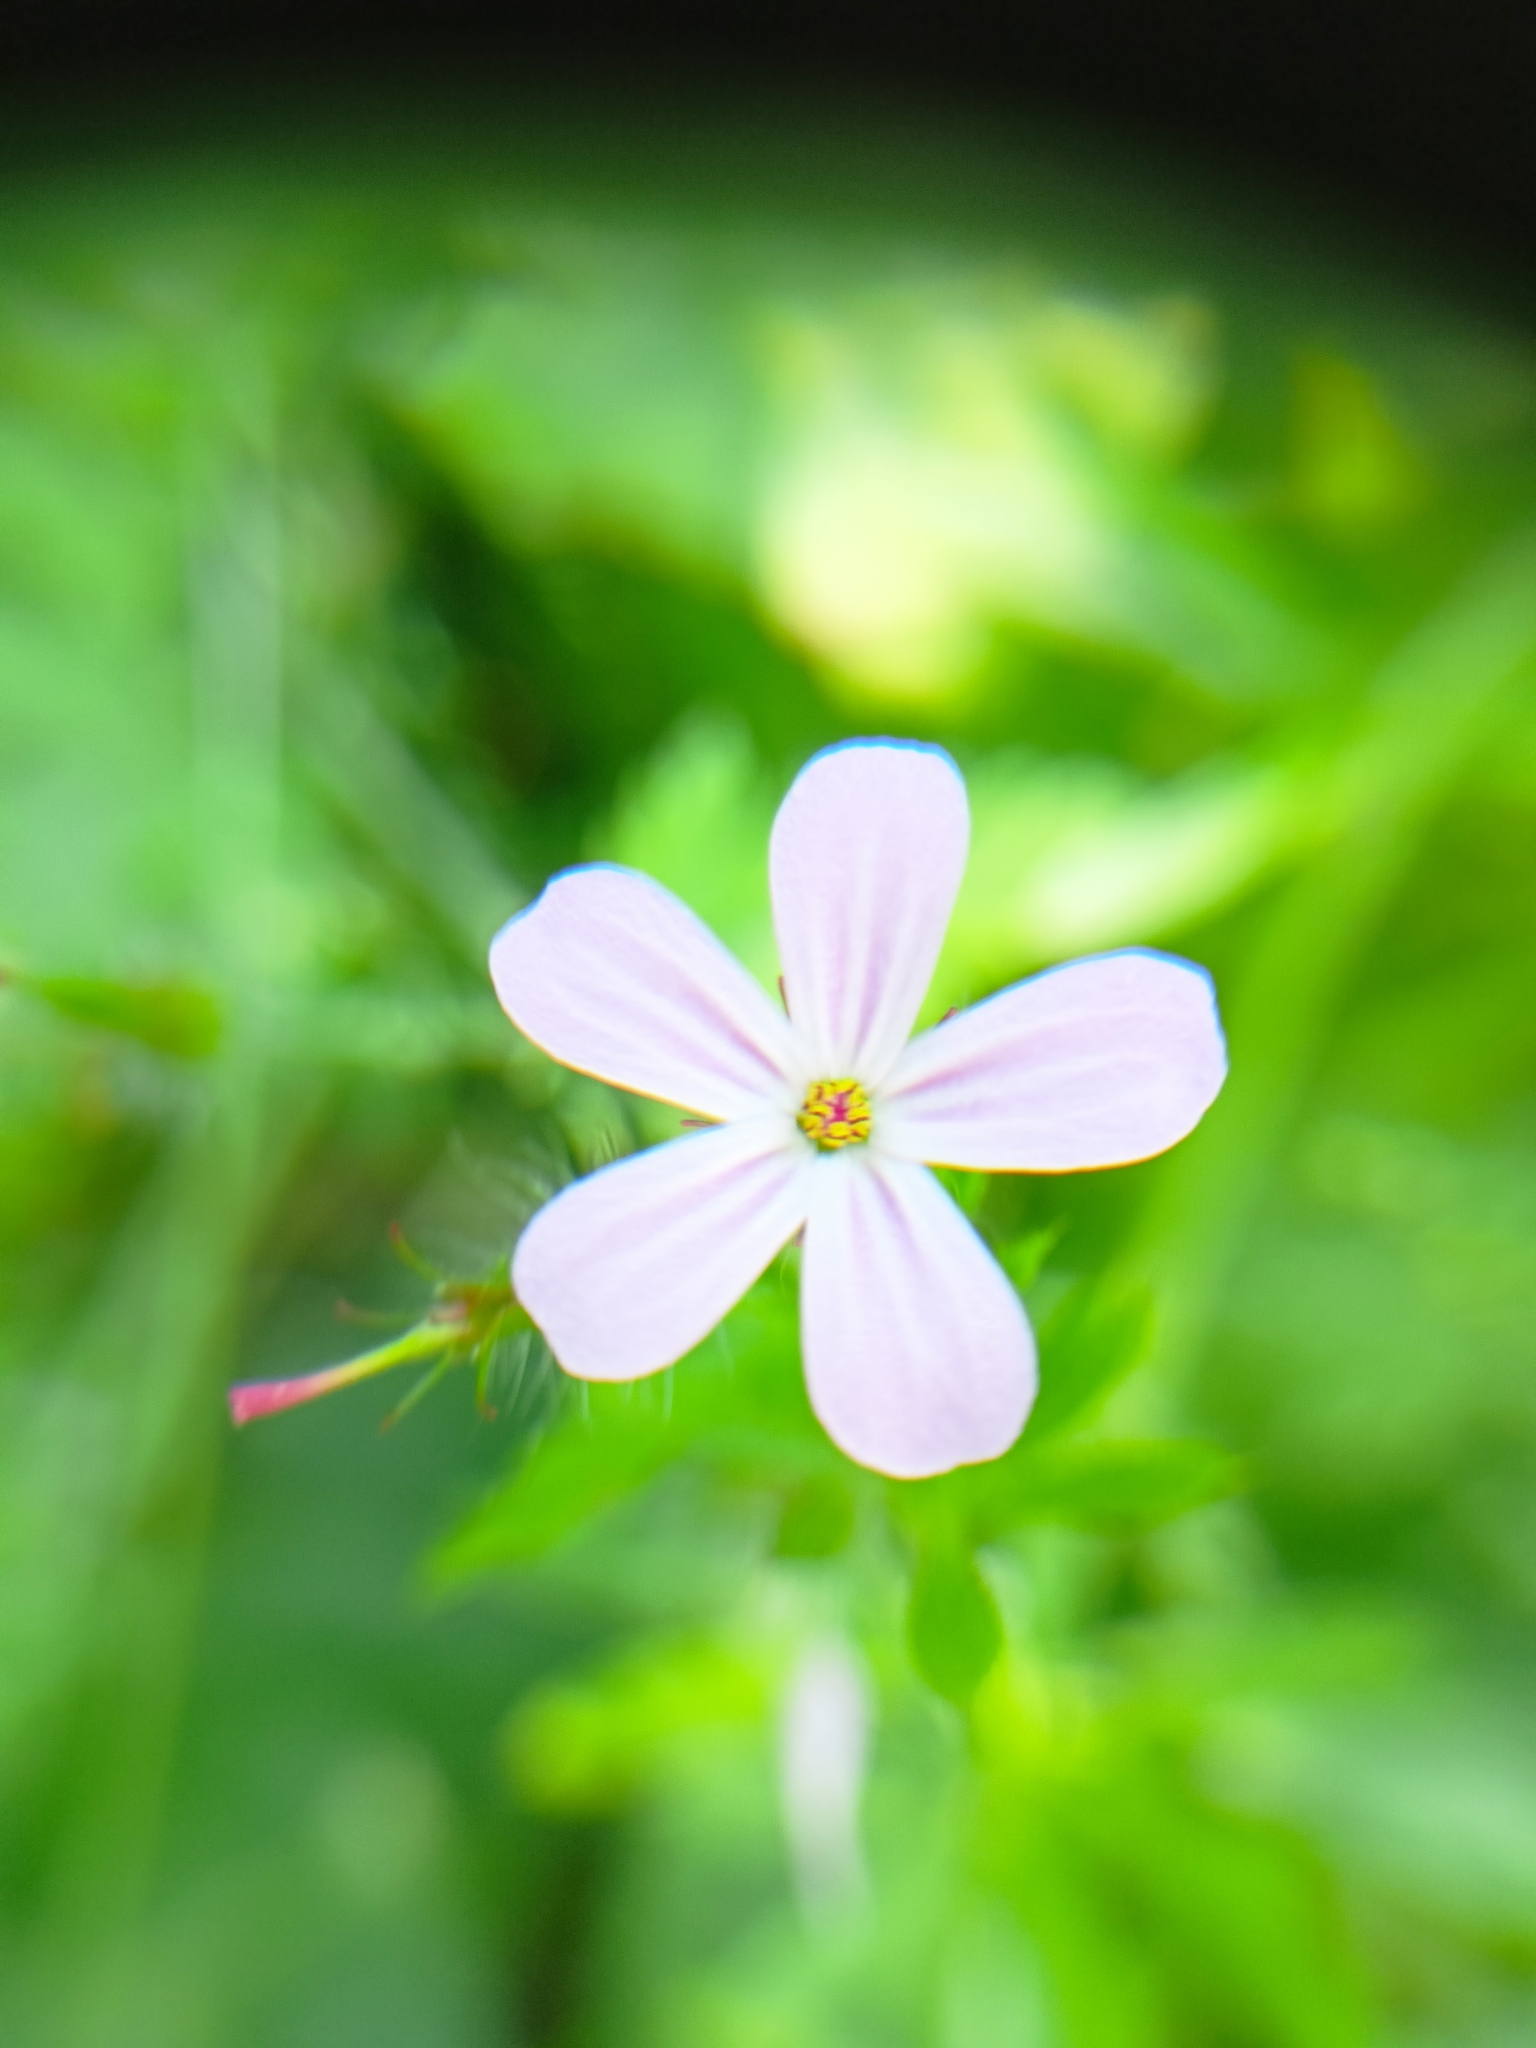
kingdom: Plantae
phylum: Tracheophyta
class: Magnoliopsida
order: Geraniales
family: Geraniaceae
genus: Geranium
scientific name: Geranium robertianum
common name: Herb-robert
